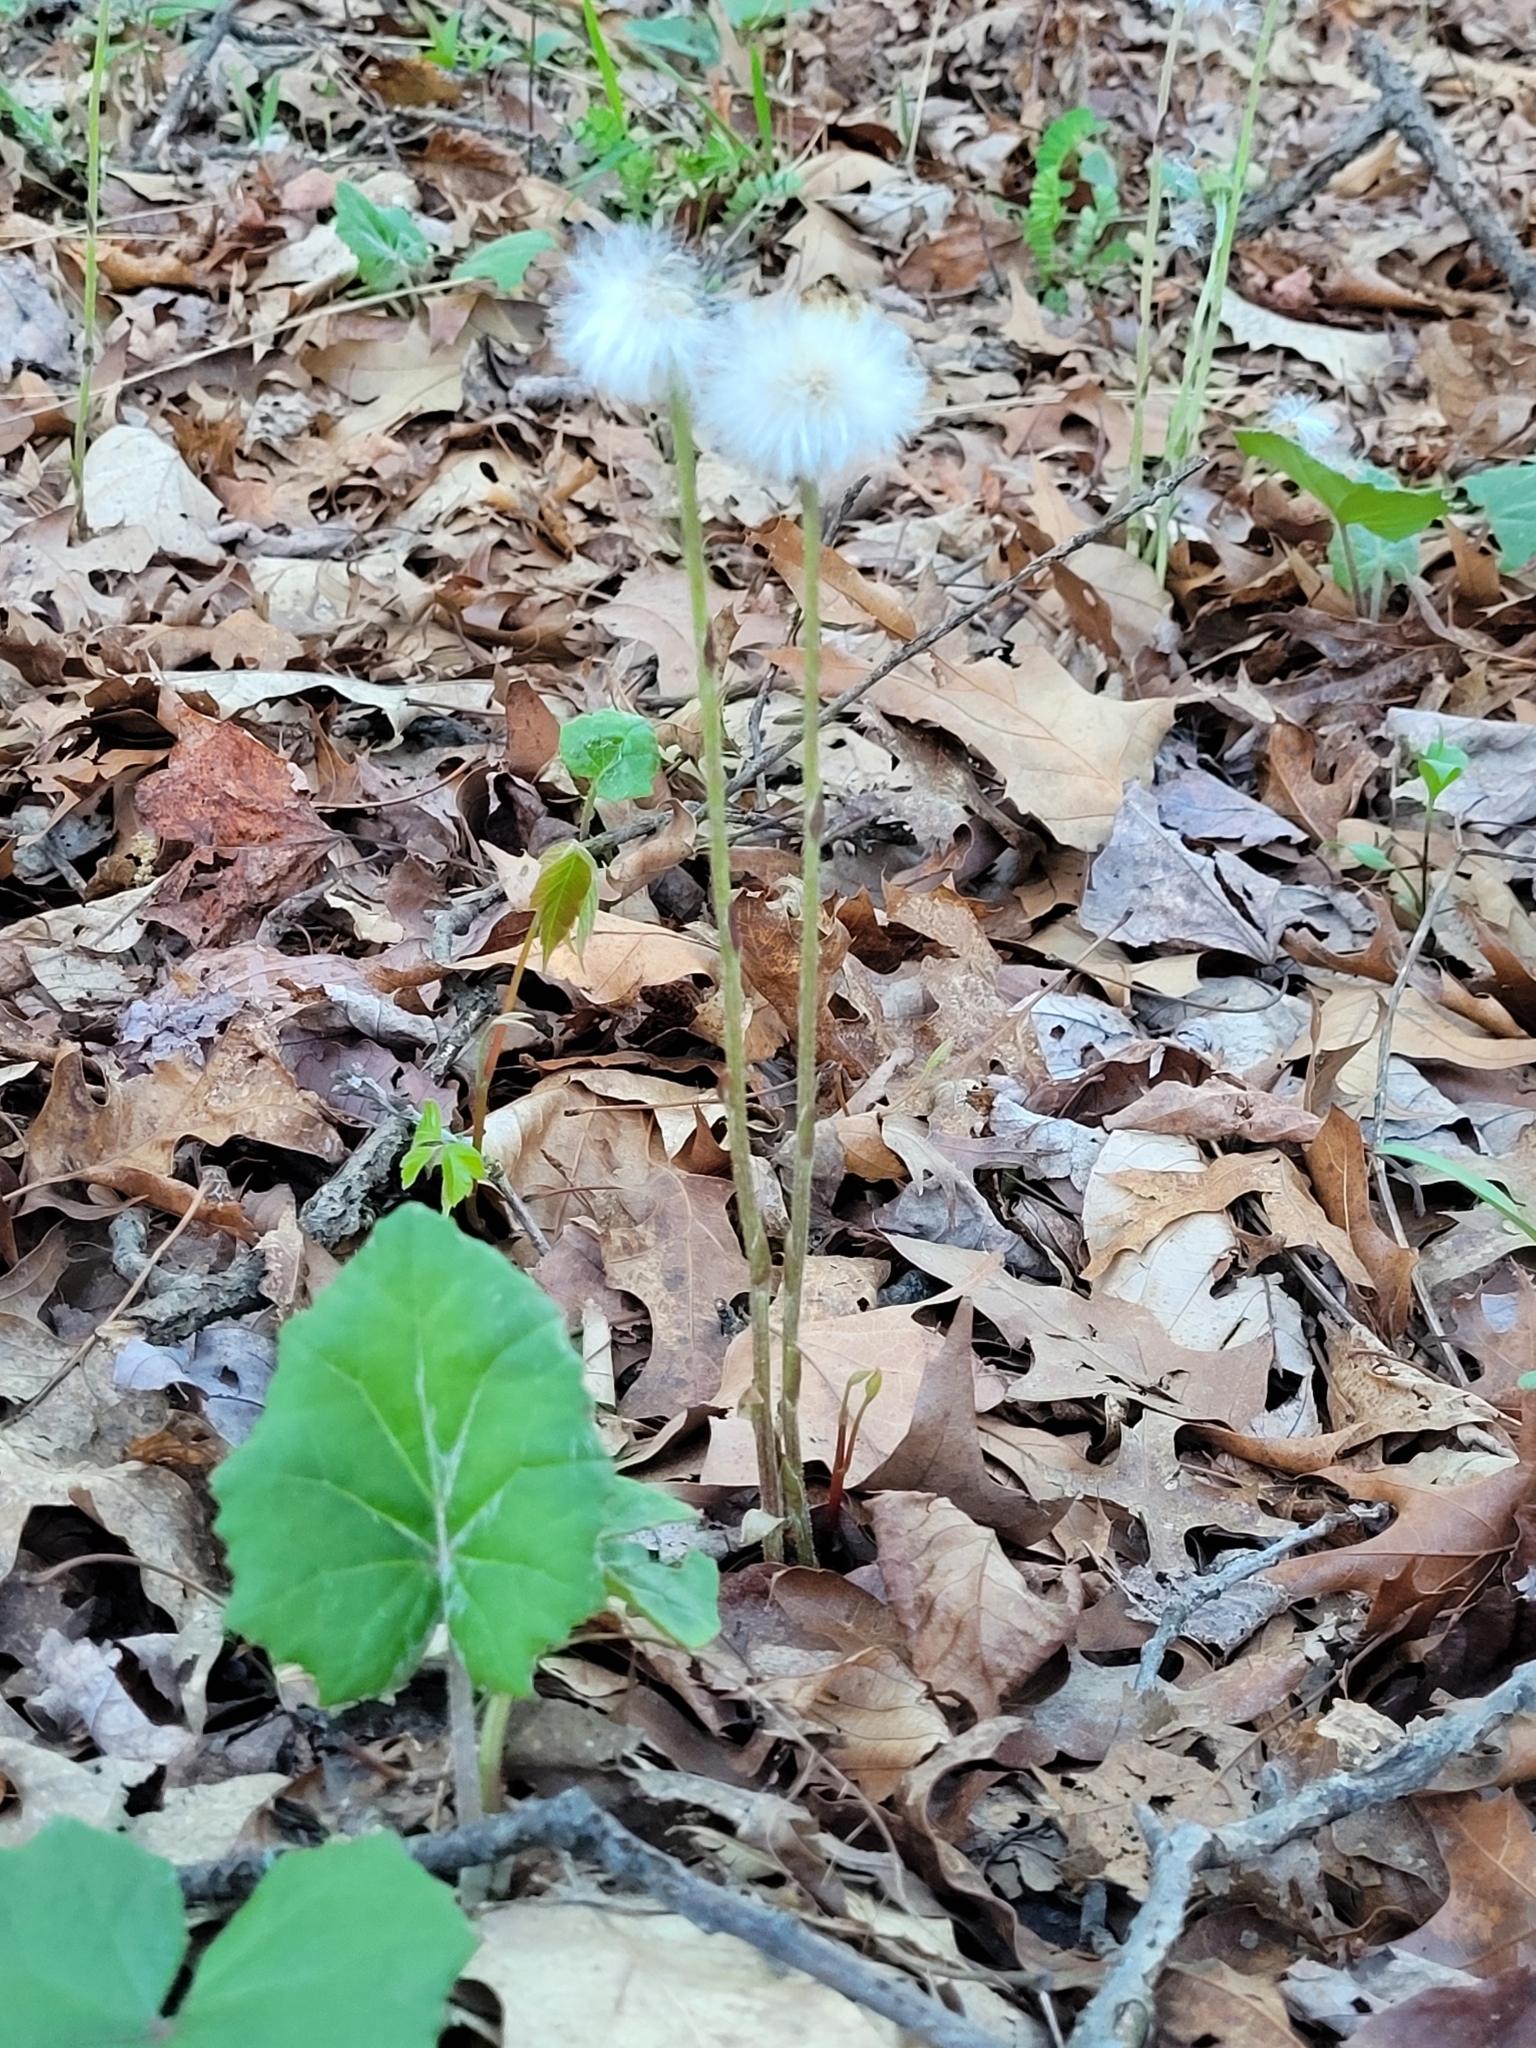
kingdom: Plantae
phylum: Tracheophyta
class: Magnoliopsida
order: Asterales
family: Asteraceae
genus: Tussilago
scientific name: Tussilago farfara
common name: Coltsfoot
